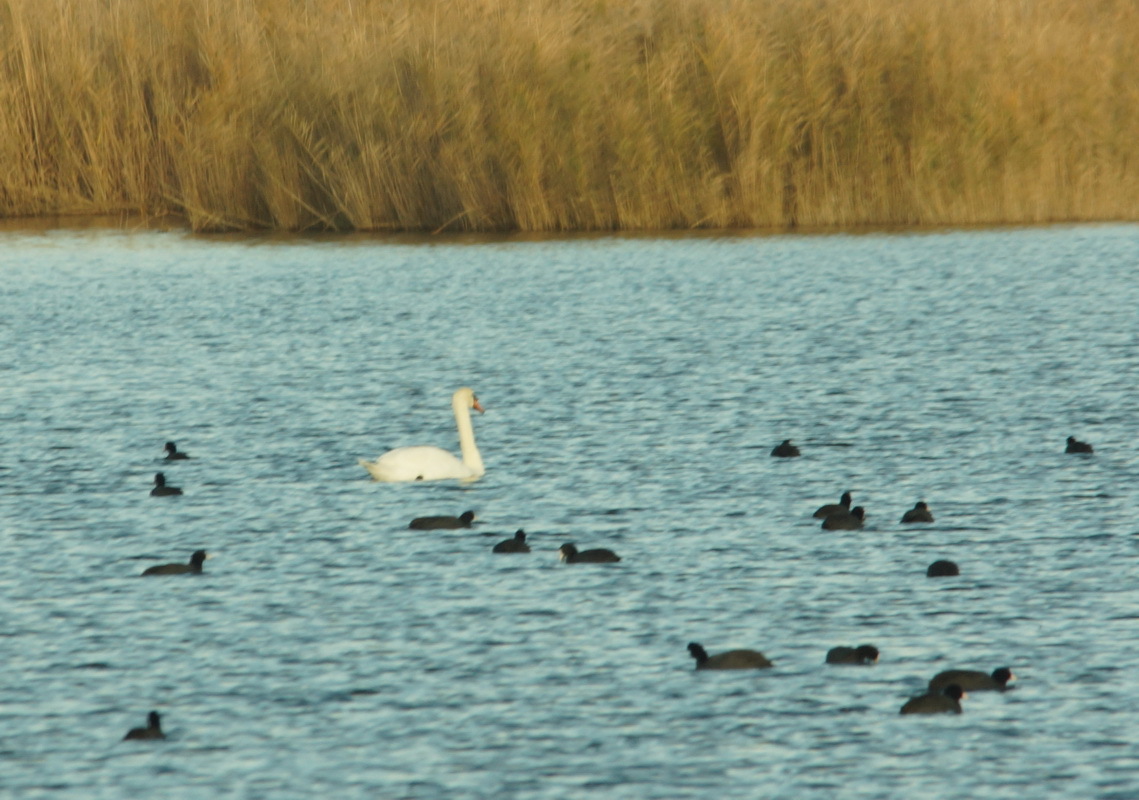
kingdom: Animalia
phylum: Chordata
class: Aves
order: Anseriformes
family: Anatidae
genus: Cygnus
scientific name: Cygnus olor
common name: Mute swan
